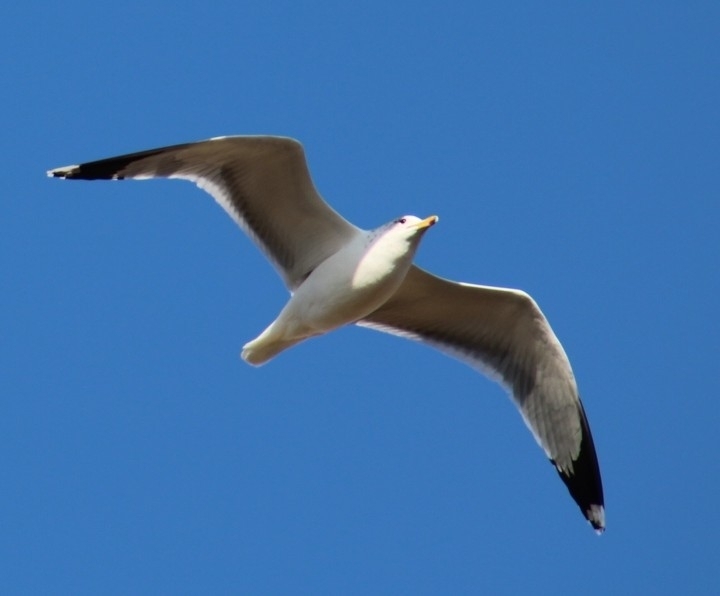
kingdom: Animalia
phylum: Chordata
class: Aves
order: Charadriiformes
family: Laridae
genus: Larus
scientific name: Larus californicus
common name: California gull
